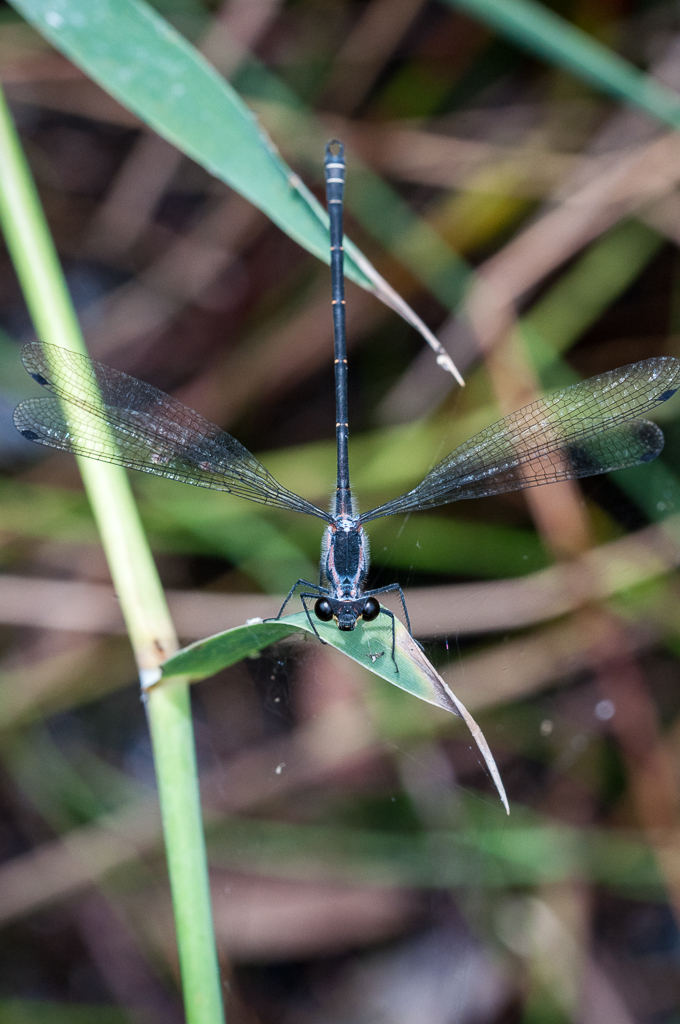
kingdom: Animalia
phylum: Arthropoda
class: Insecta
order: Odonata
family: Argiolestidae
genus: Austroargiolestes
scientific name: Austroargiolestes icteromelas
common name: Common flatwing
